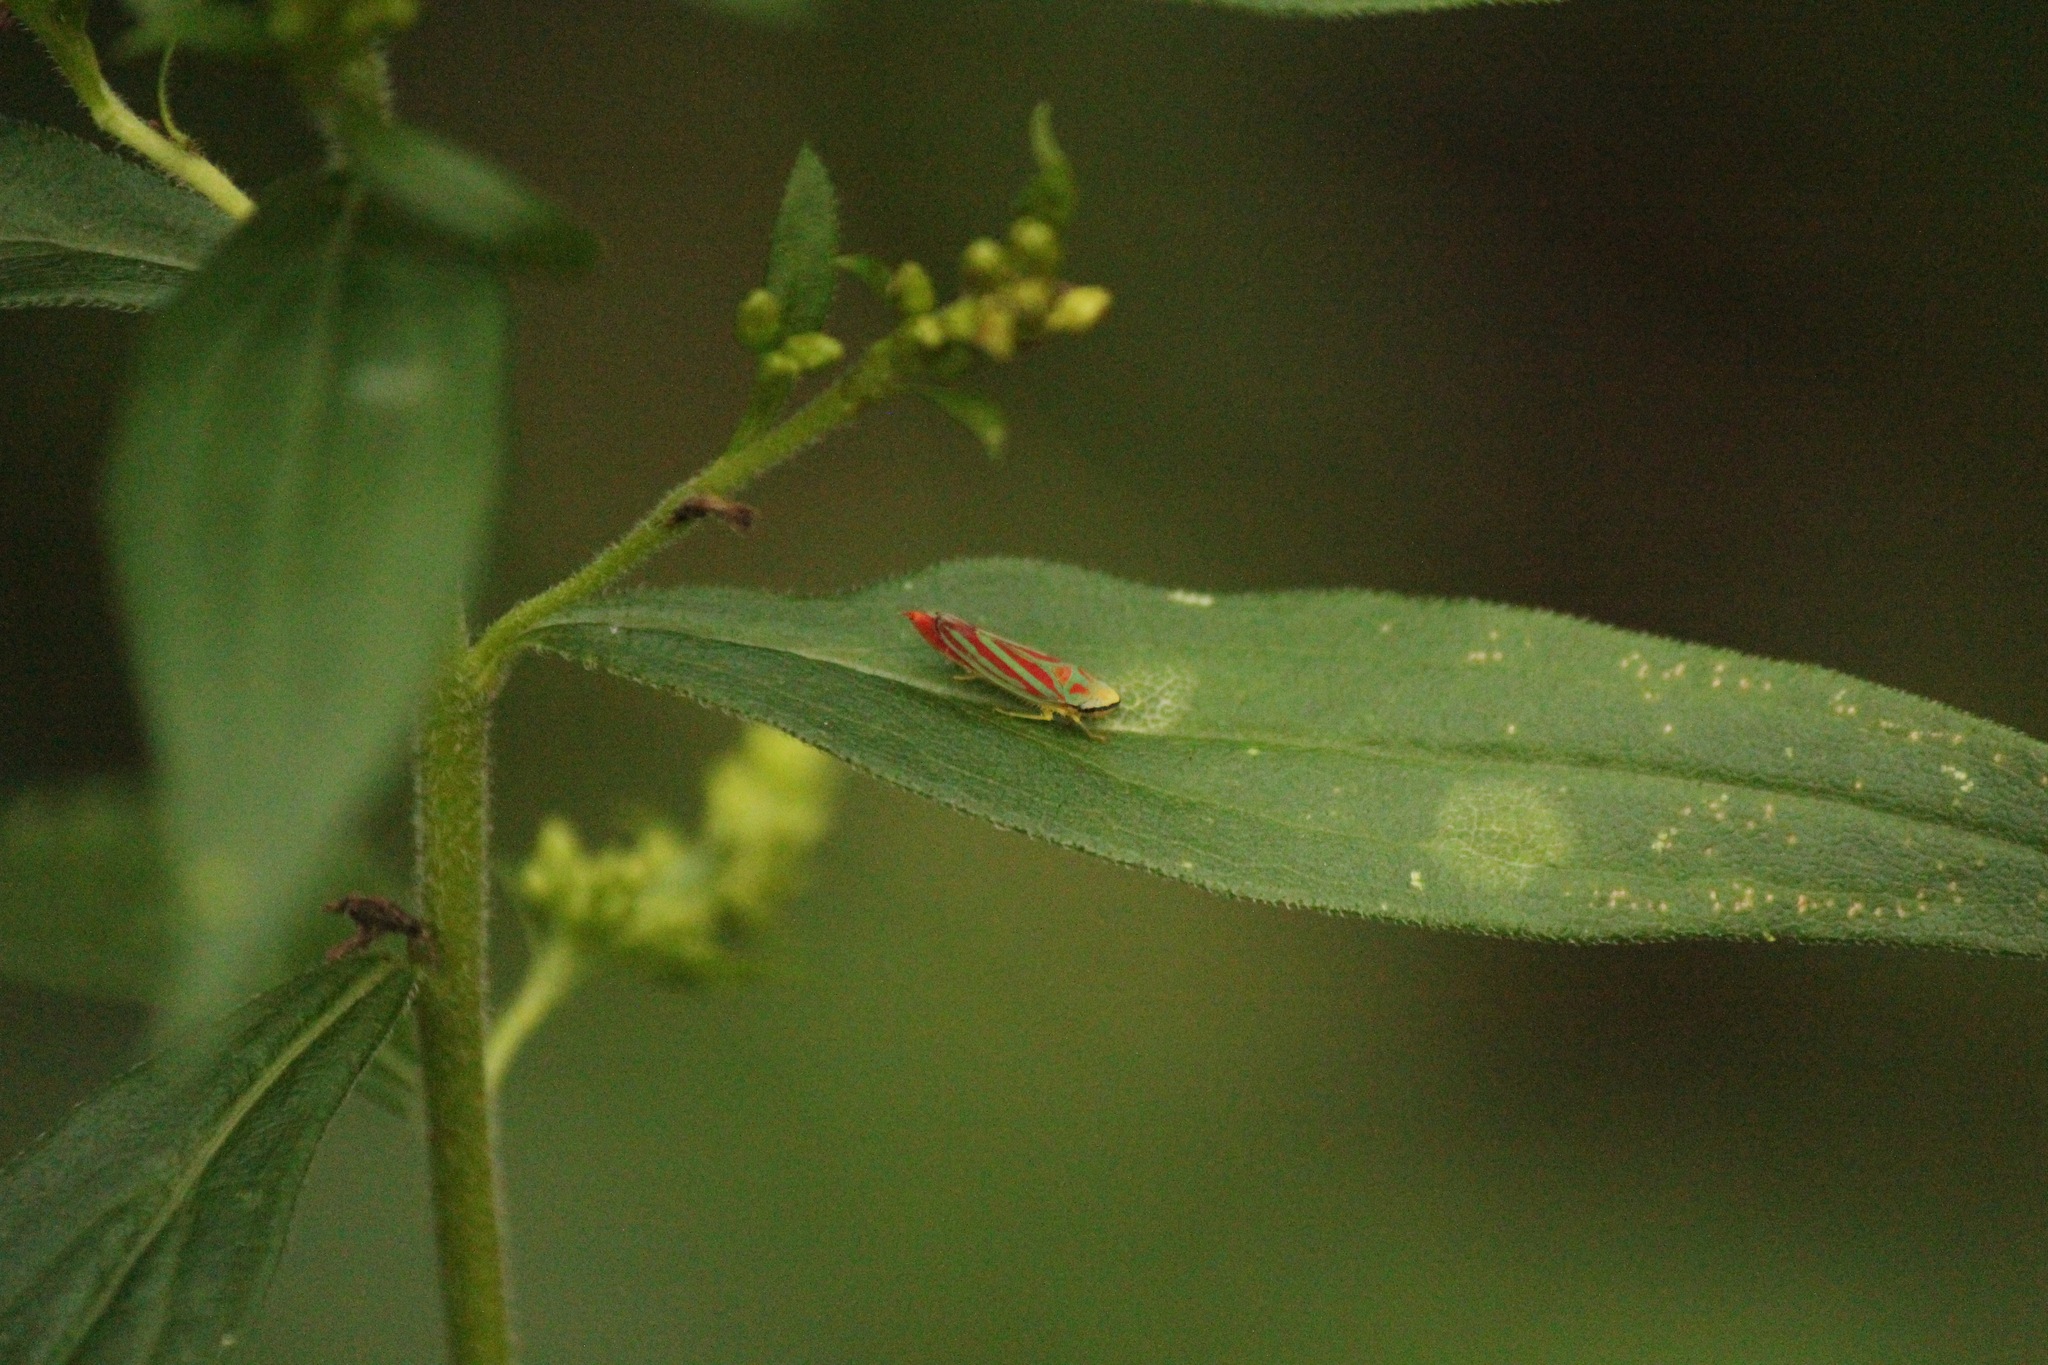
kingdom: Animalia
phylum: Arthropoda
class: Insecta
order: Hemiptera
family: Cicadellidae
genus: Graphocephala
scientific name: Graphocephala coccinea
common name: Candy-striped leafhopper
